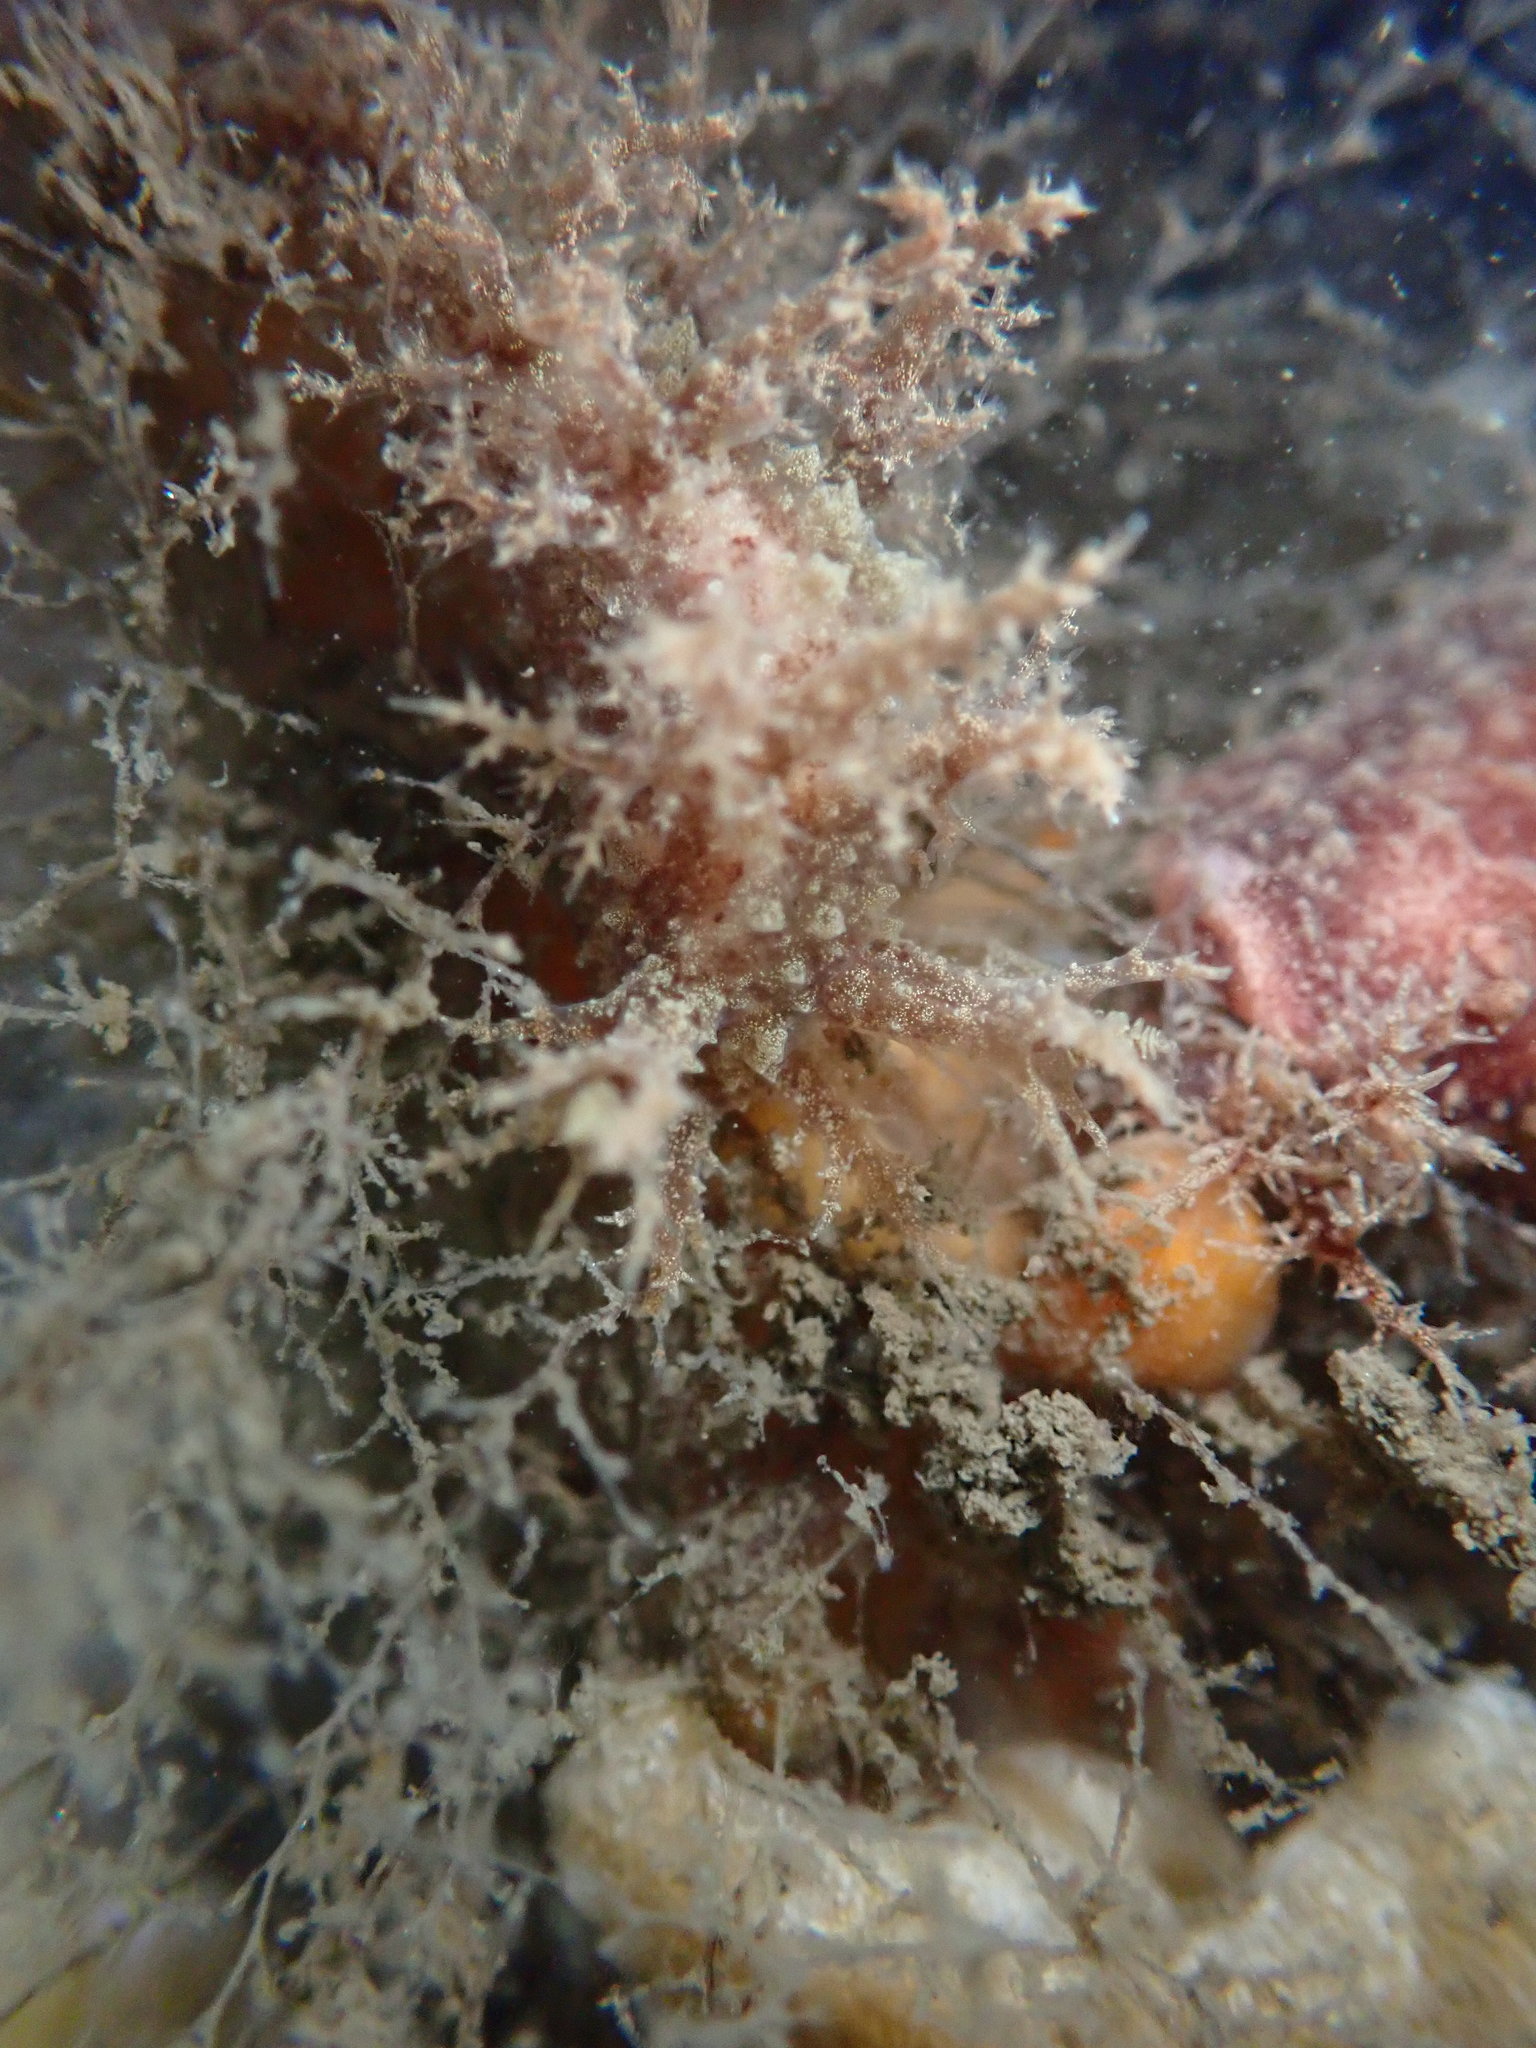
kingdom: Animalia
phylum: Mollusca
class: Gastropoda
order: Nudibranchia
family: Dendronotidae
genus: Dendronotus
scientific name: Dendronotus venustus
